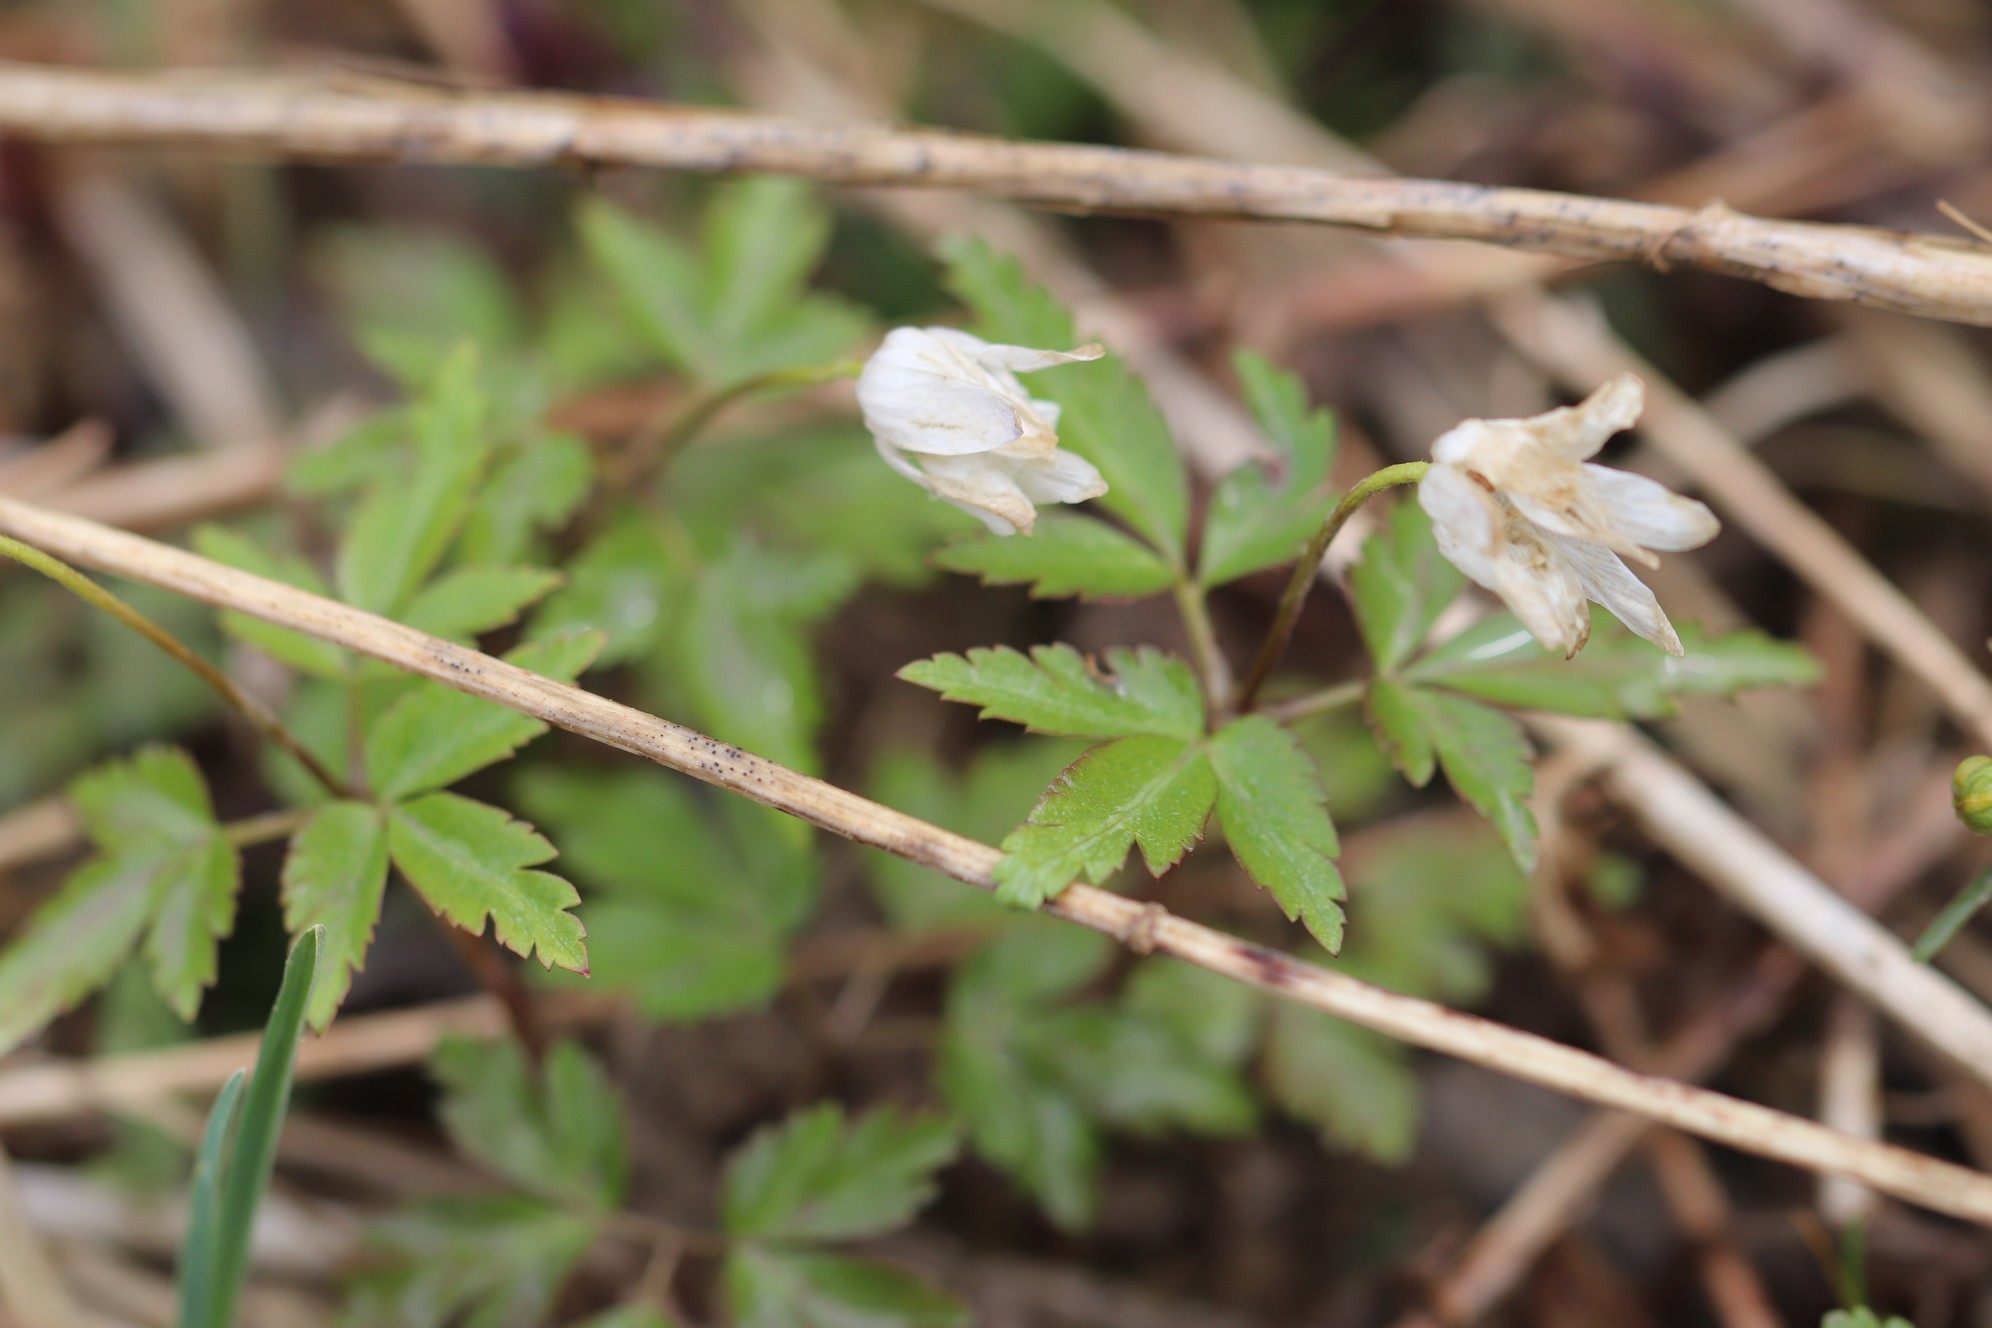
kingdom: Plantae
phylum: Tracheophyta
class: Magnoliopsida
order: Ranunculales
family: Ranunculaceae
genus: Anemone
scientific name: Anemone altaica
